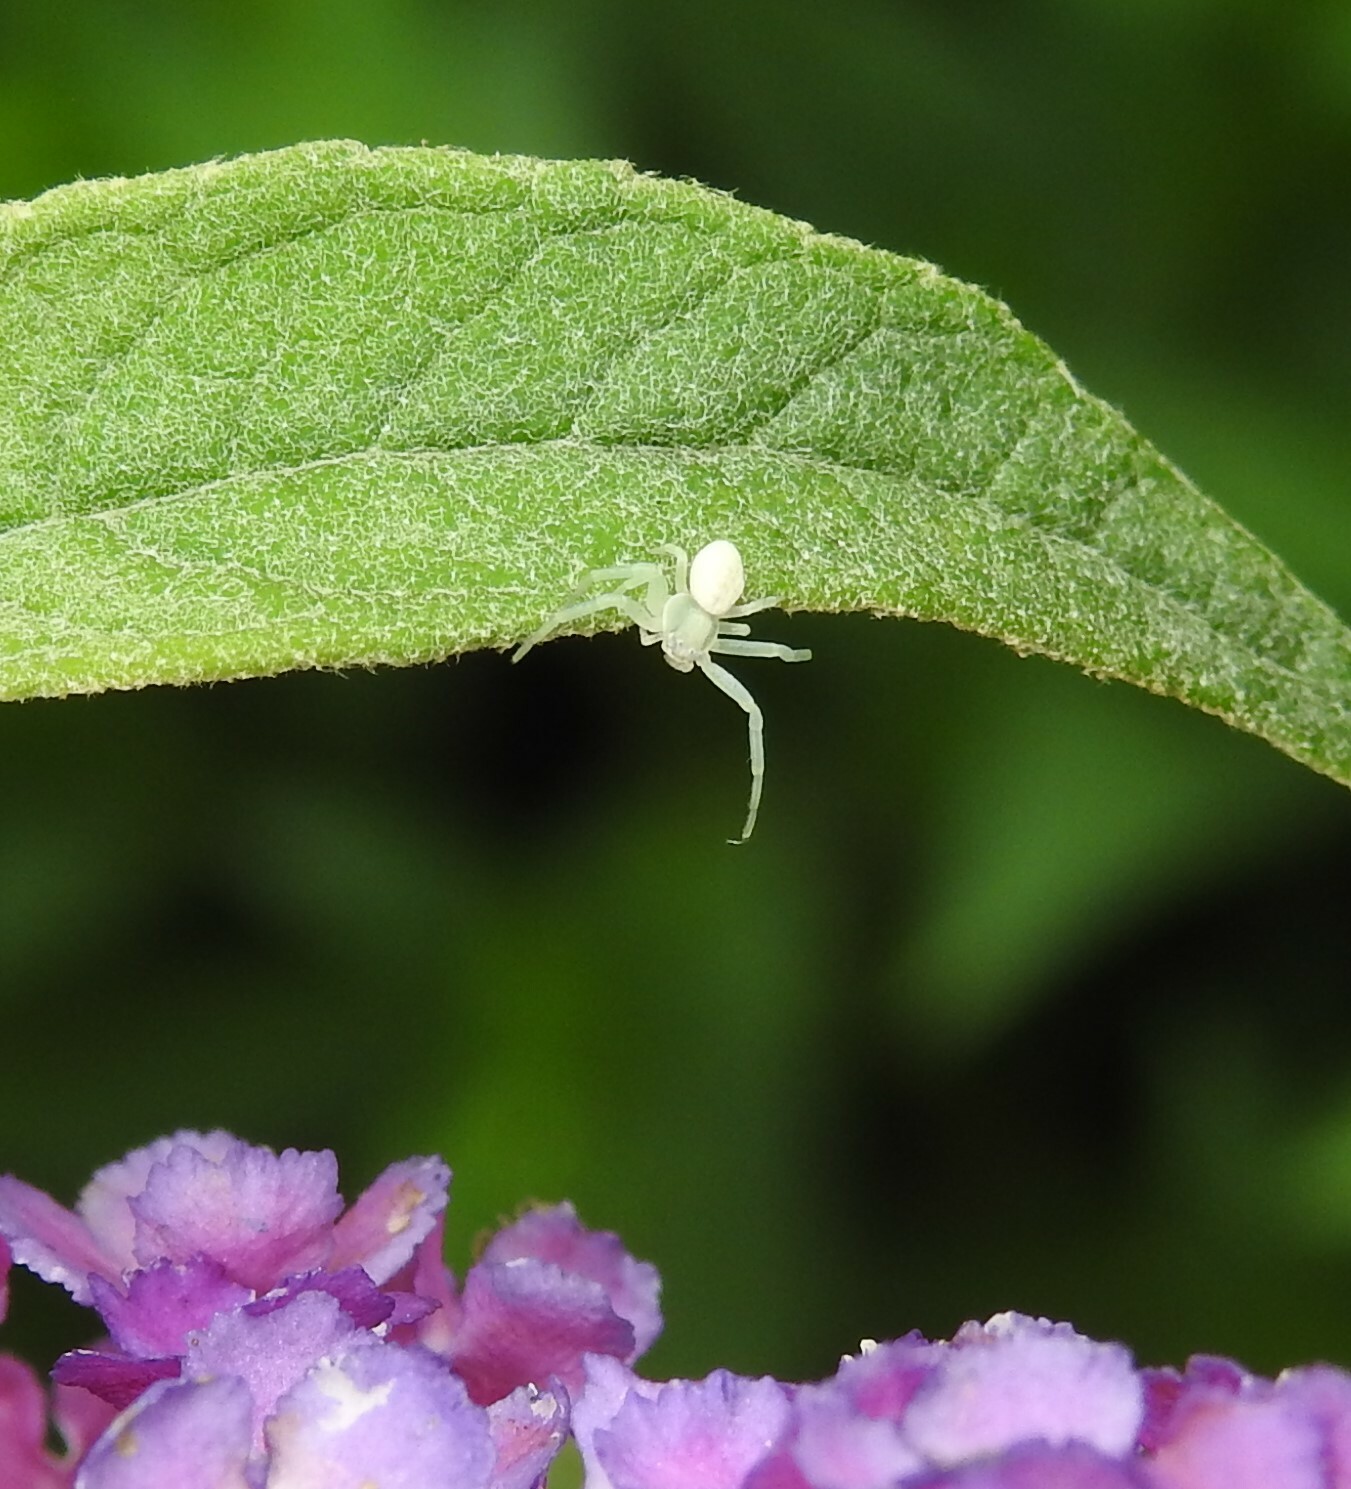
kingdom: Animalia
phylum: Arthropoda
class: Arachnida
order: Araneae
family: Thomisidae
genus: Misumena
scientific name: Misumena vatia
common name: Goldenrod crab spider
